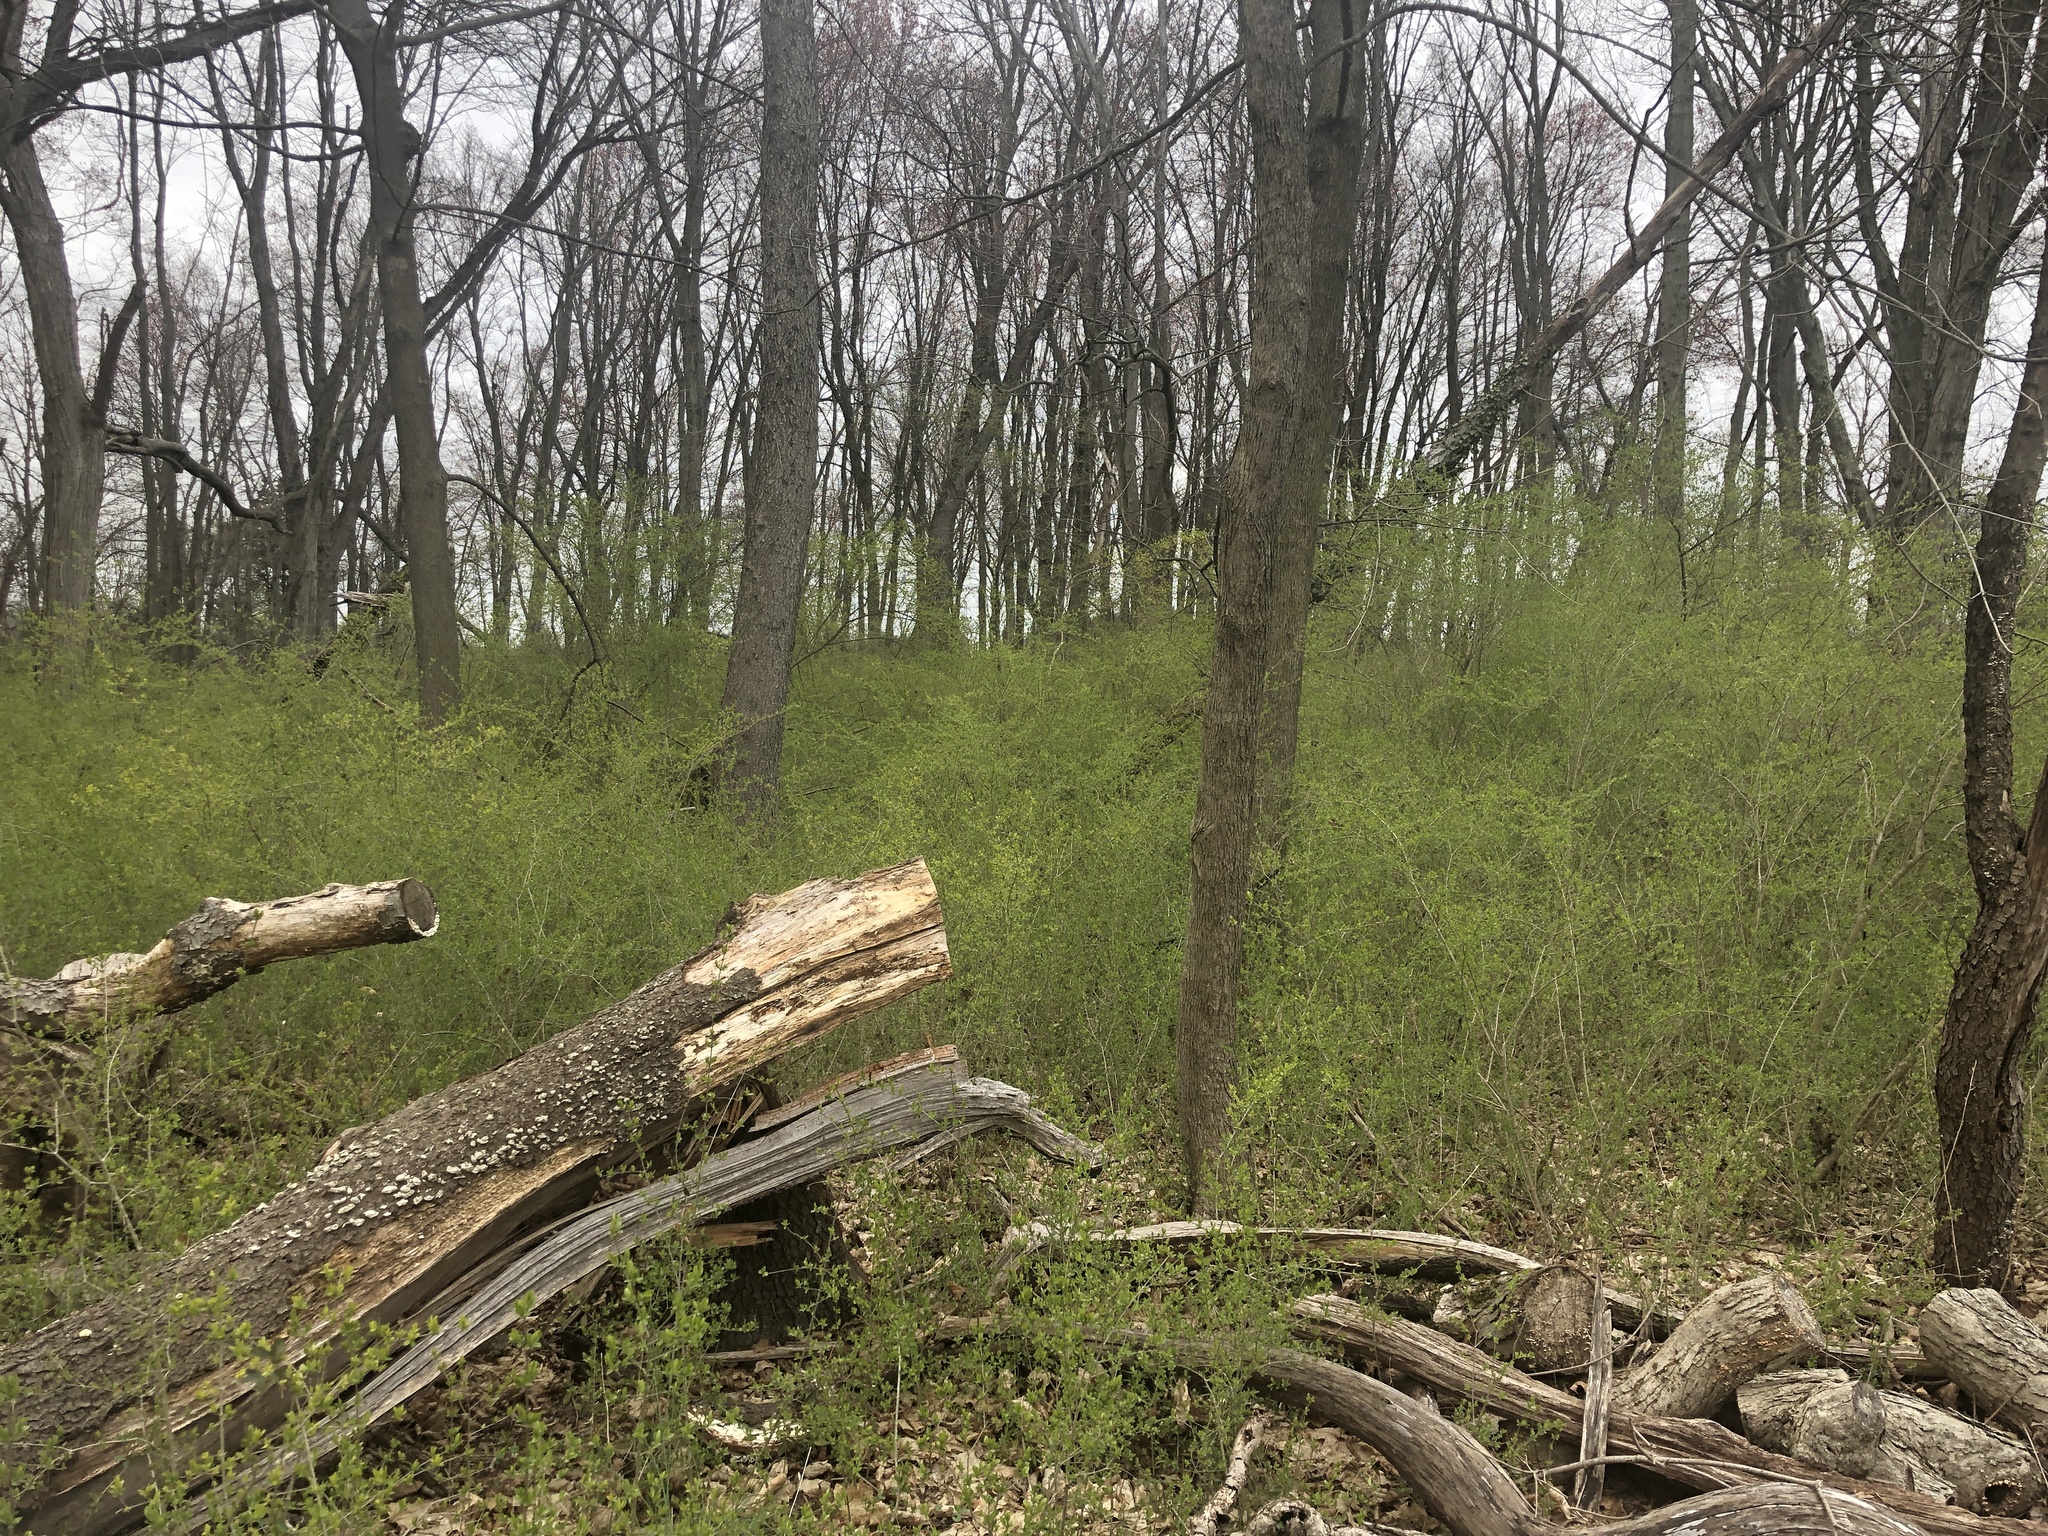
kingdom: Plantae
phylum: Tracheophyta
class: Magnoliopsida
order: Lamiales
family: Oleaceae
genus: Ligustrum
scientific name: Ligustrum obtusifolium
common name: Border privet
